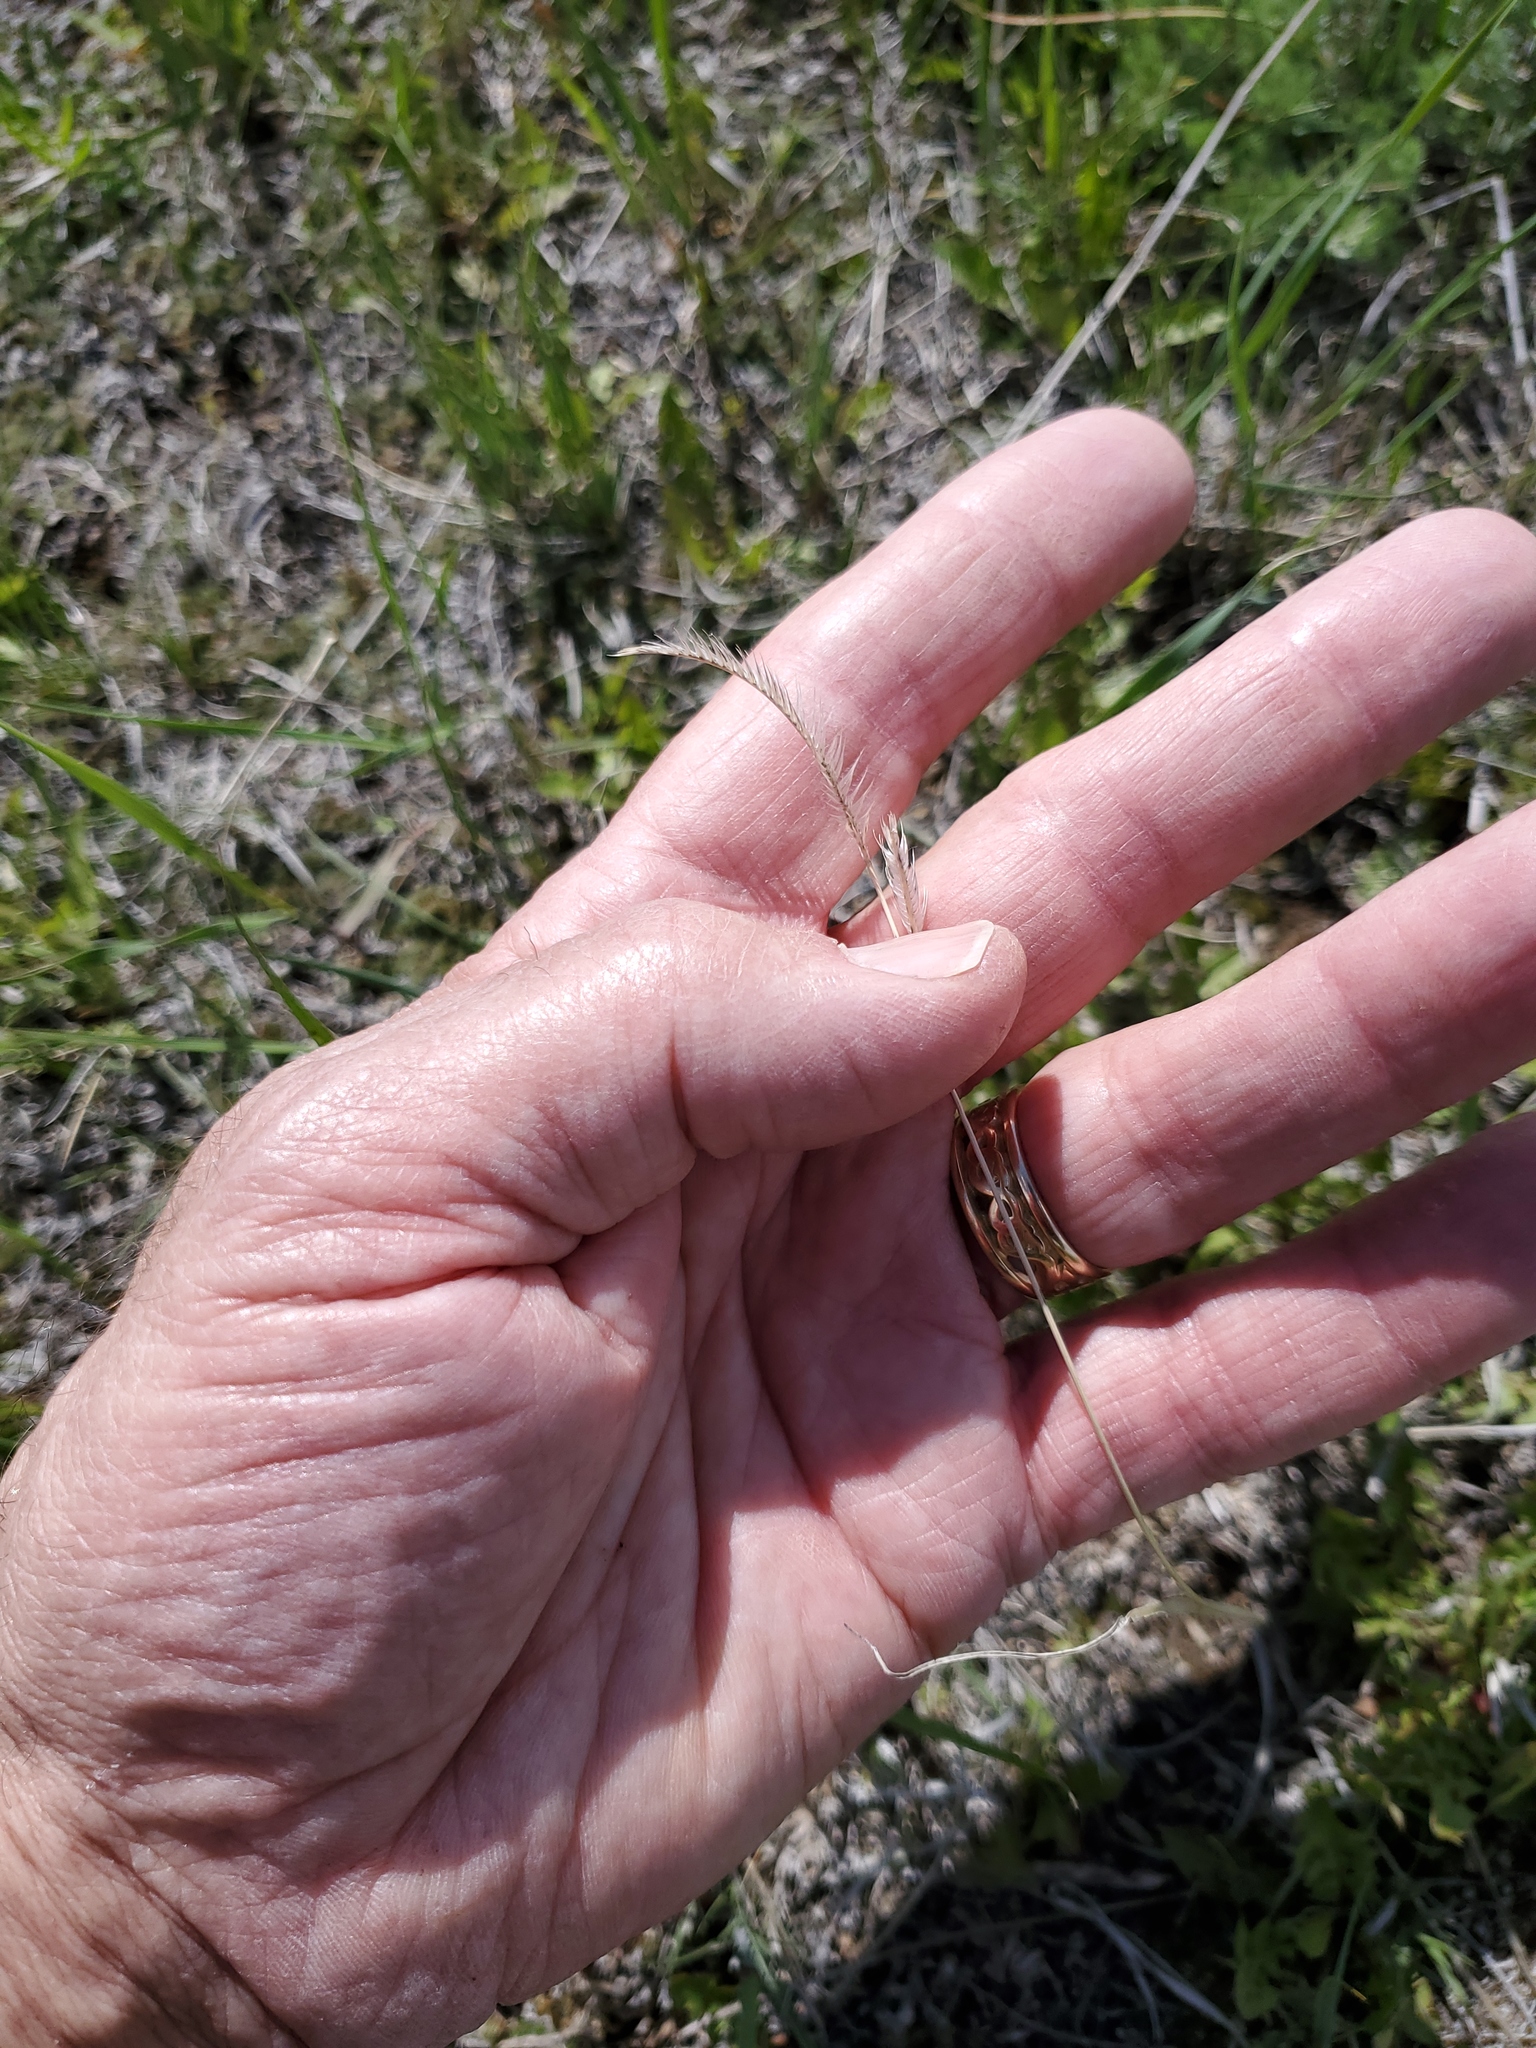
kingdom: Plantae
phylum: Tracheophyta
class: Liliopsida
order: Poales
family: Poaceae
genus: Bouteloua
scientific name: Bouteloua gracilis
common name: Blue grama
